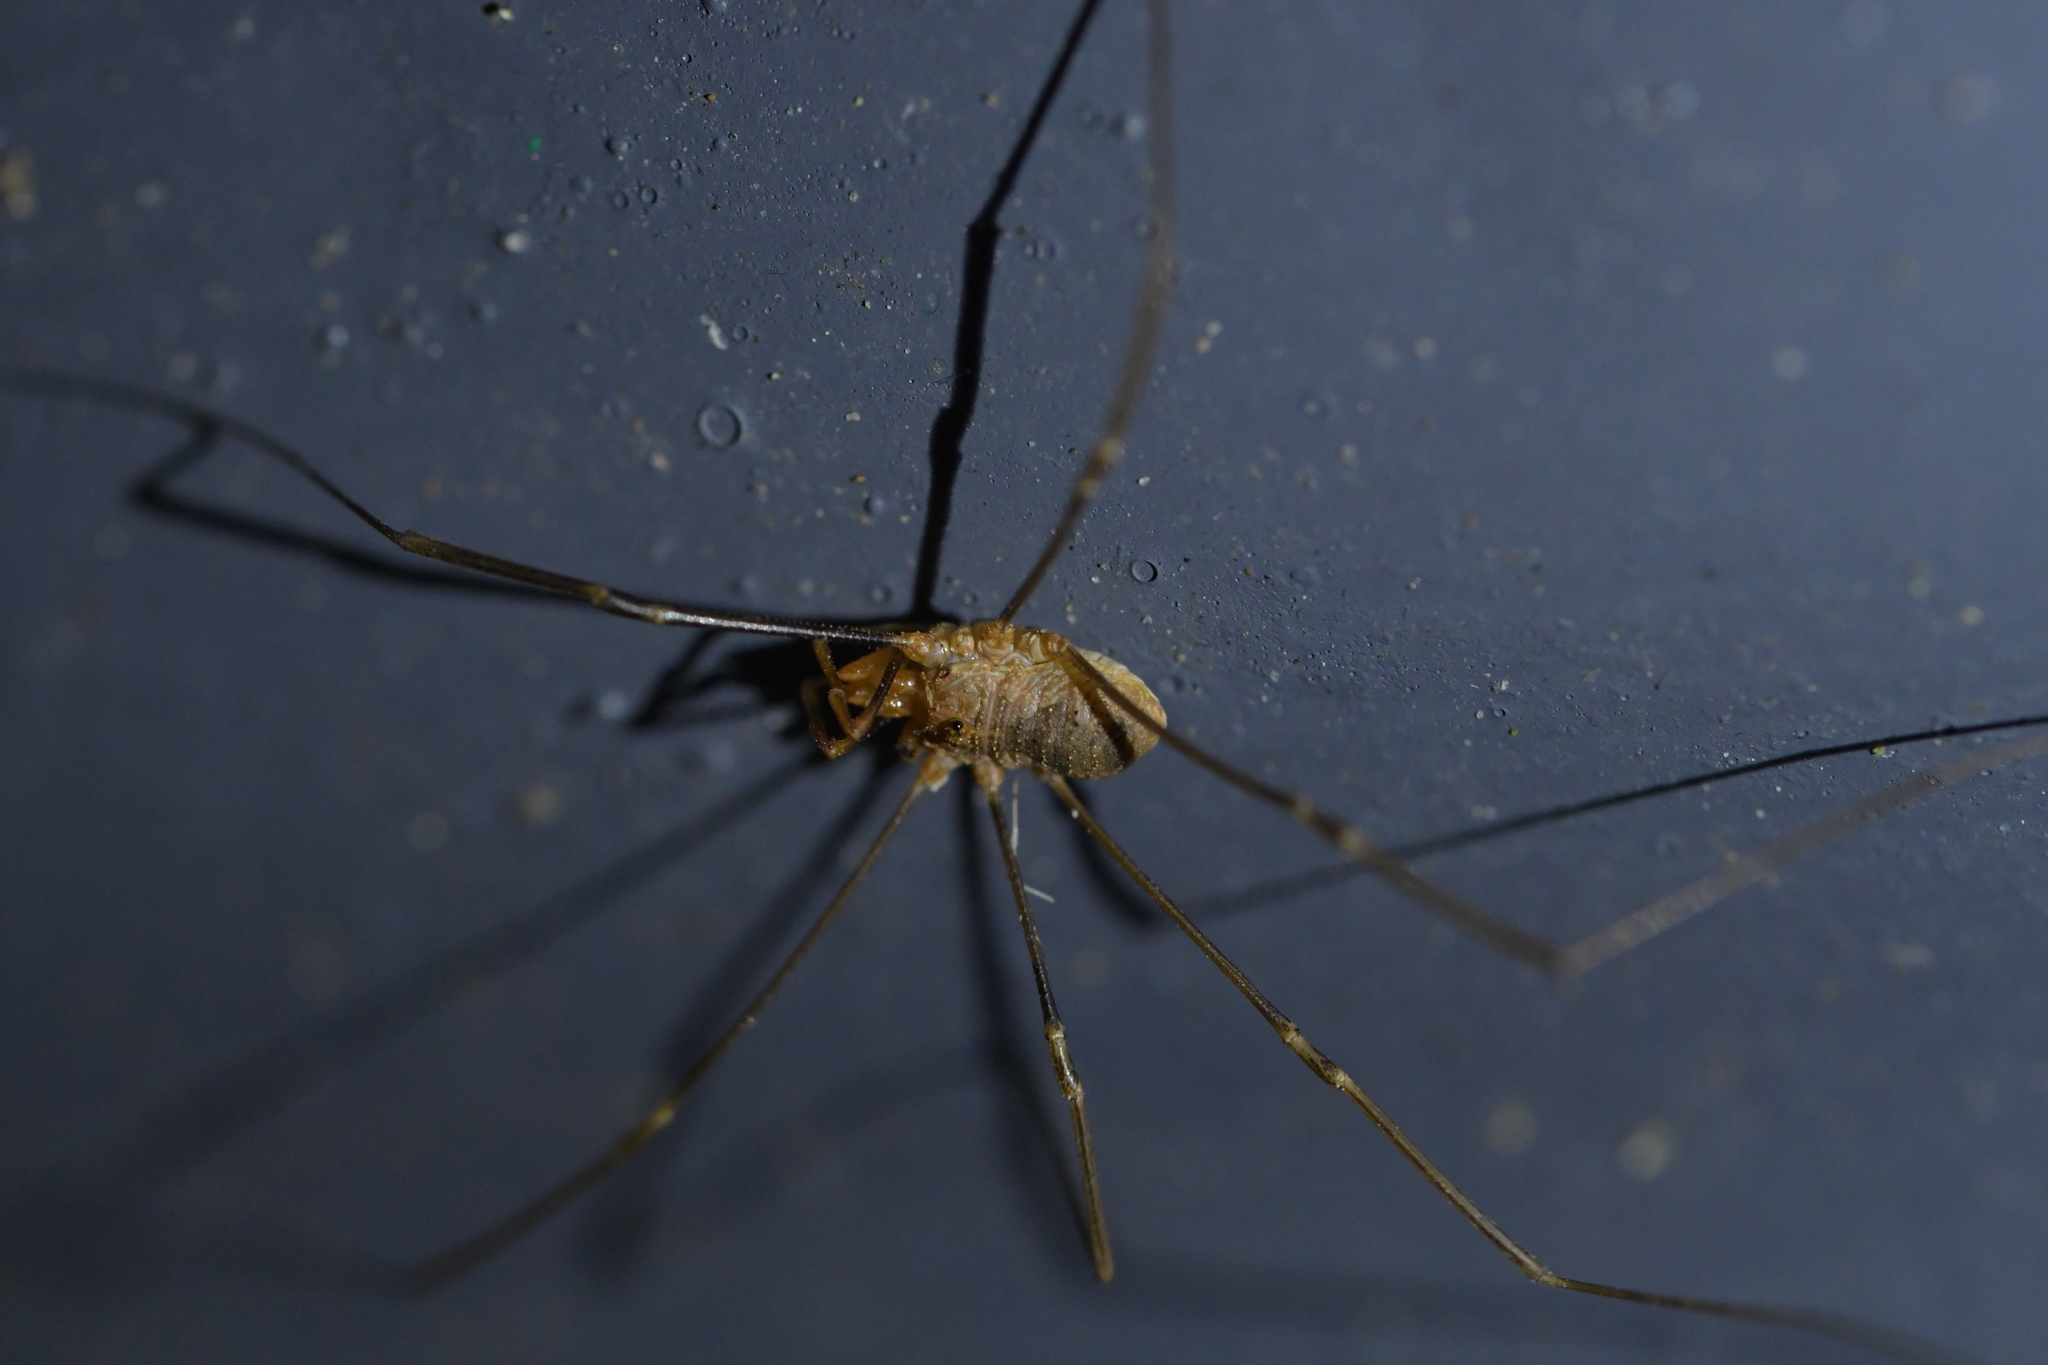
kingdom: Animalia
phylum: Arthropoda
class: Arachnida
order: Opiliones
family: Phalangiidae
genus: Phalangium
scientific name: Phalangium opilio
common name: Daddy longleg
